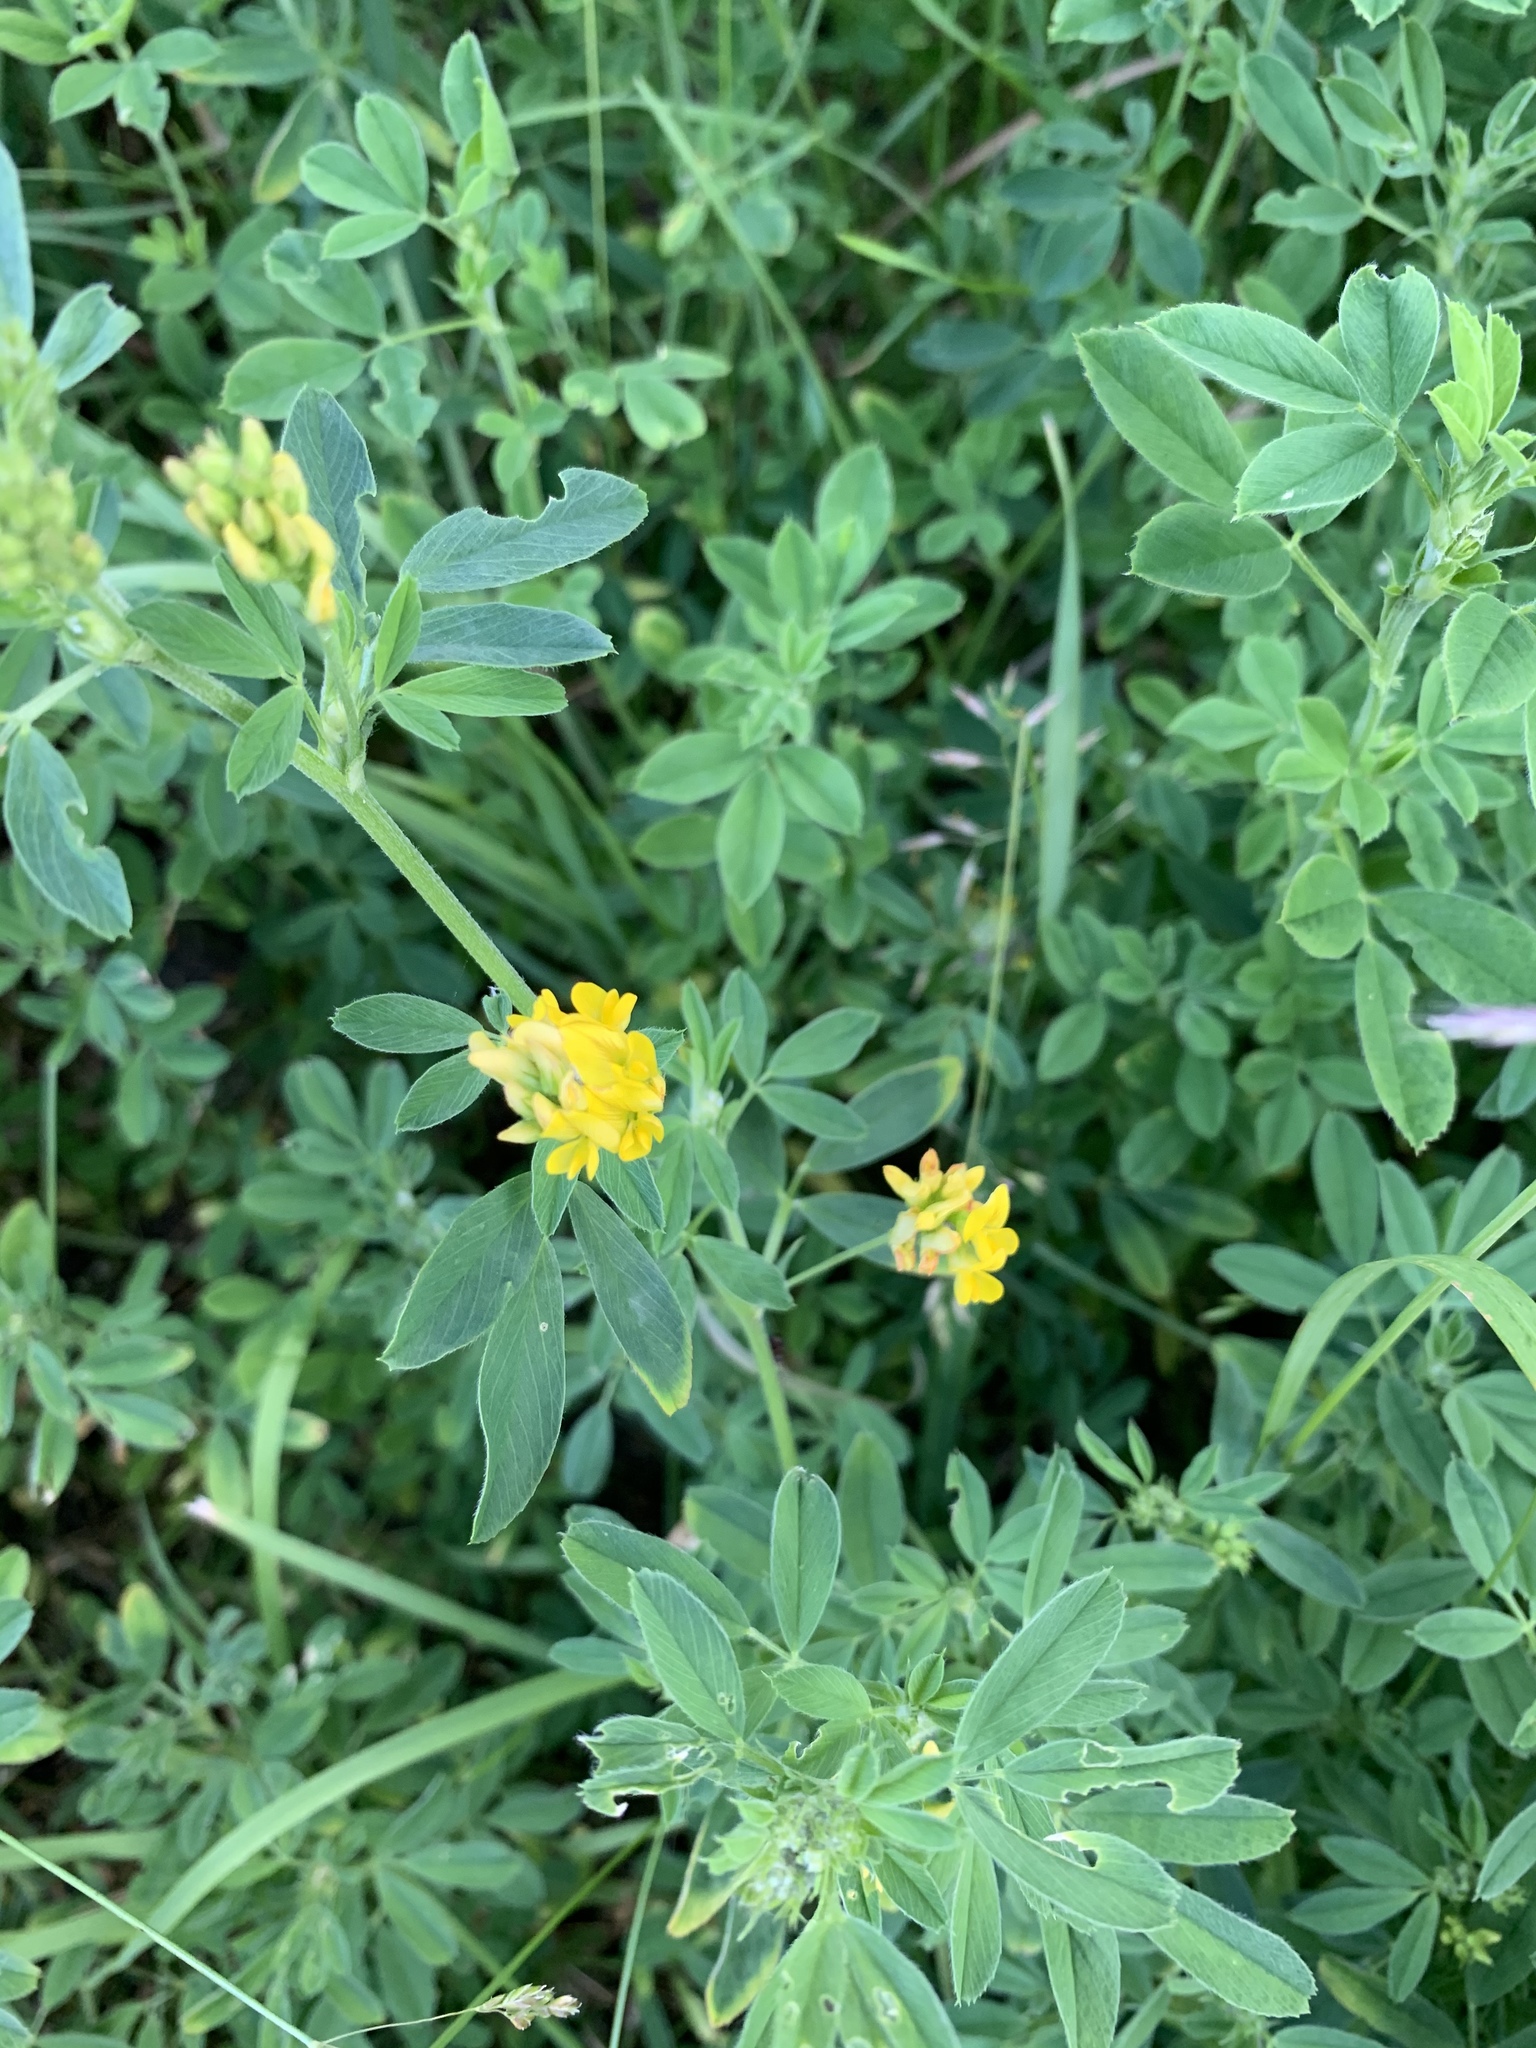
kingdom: Plantae
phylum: Tracheophyta
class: Magnoliopsida
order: Fabales
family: Fabaceae
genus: Medicago
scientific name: Medicago falcata
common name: Sickle medick
